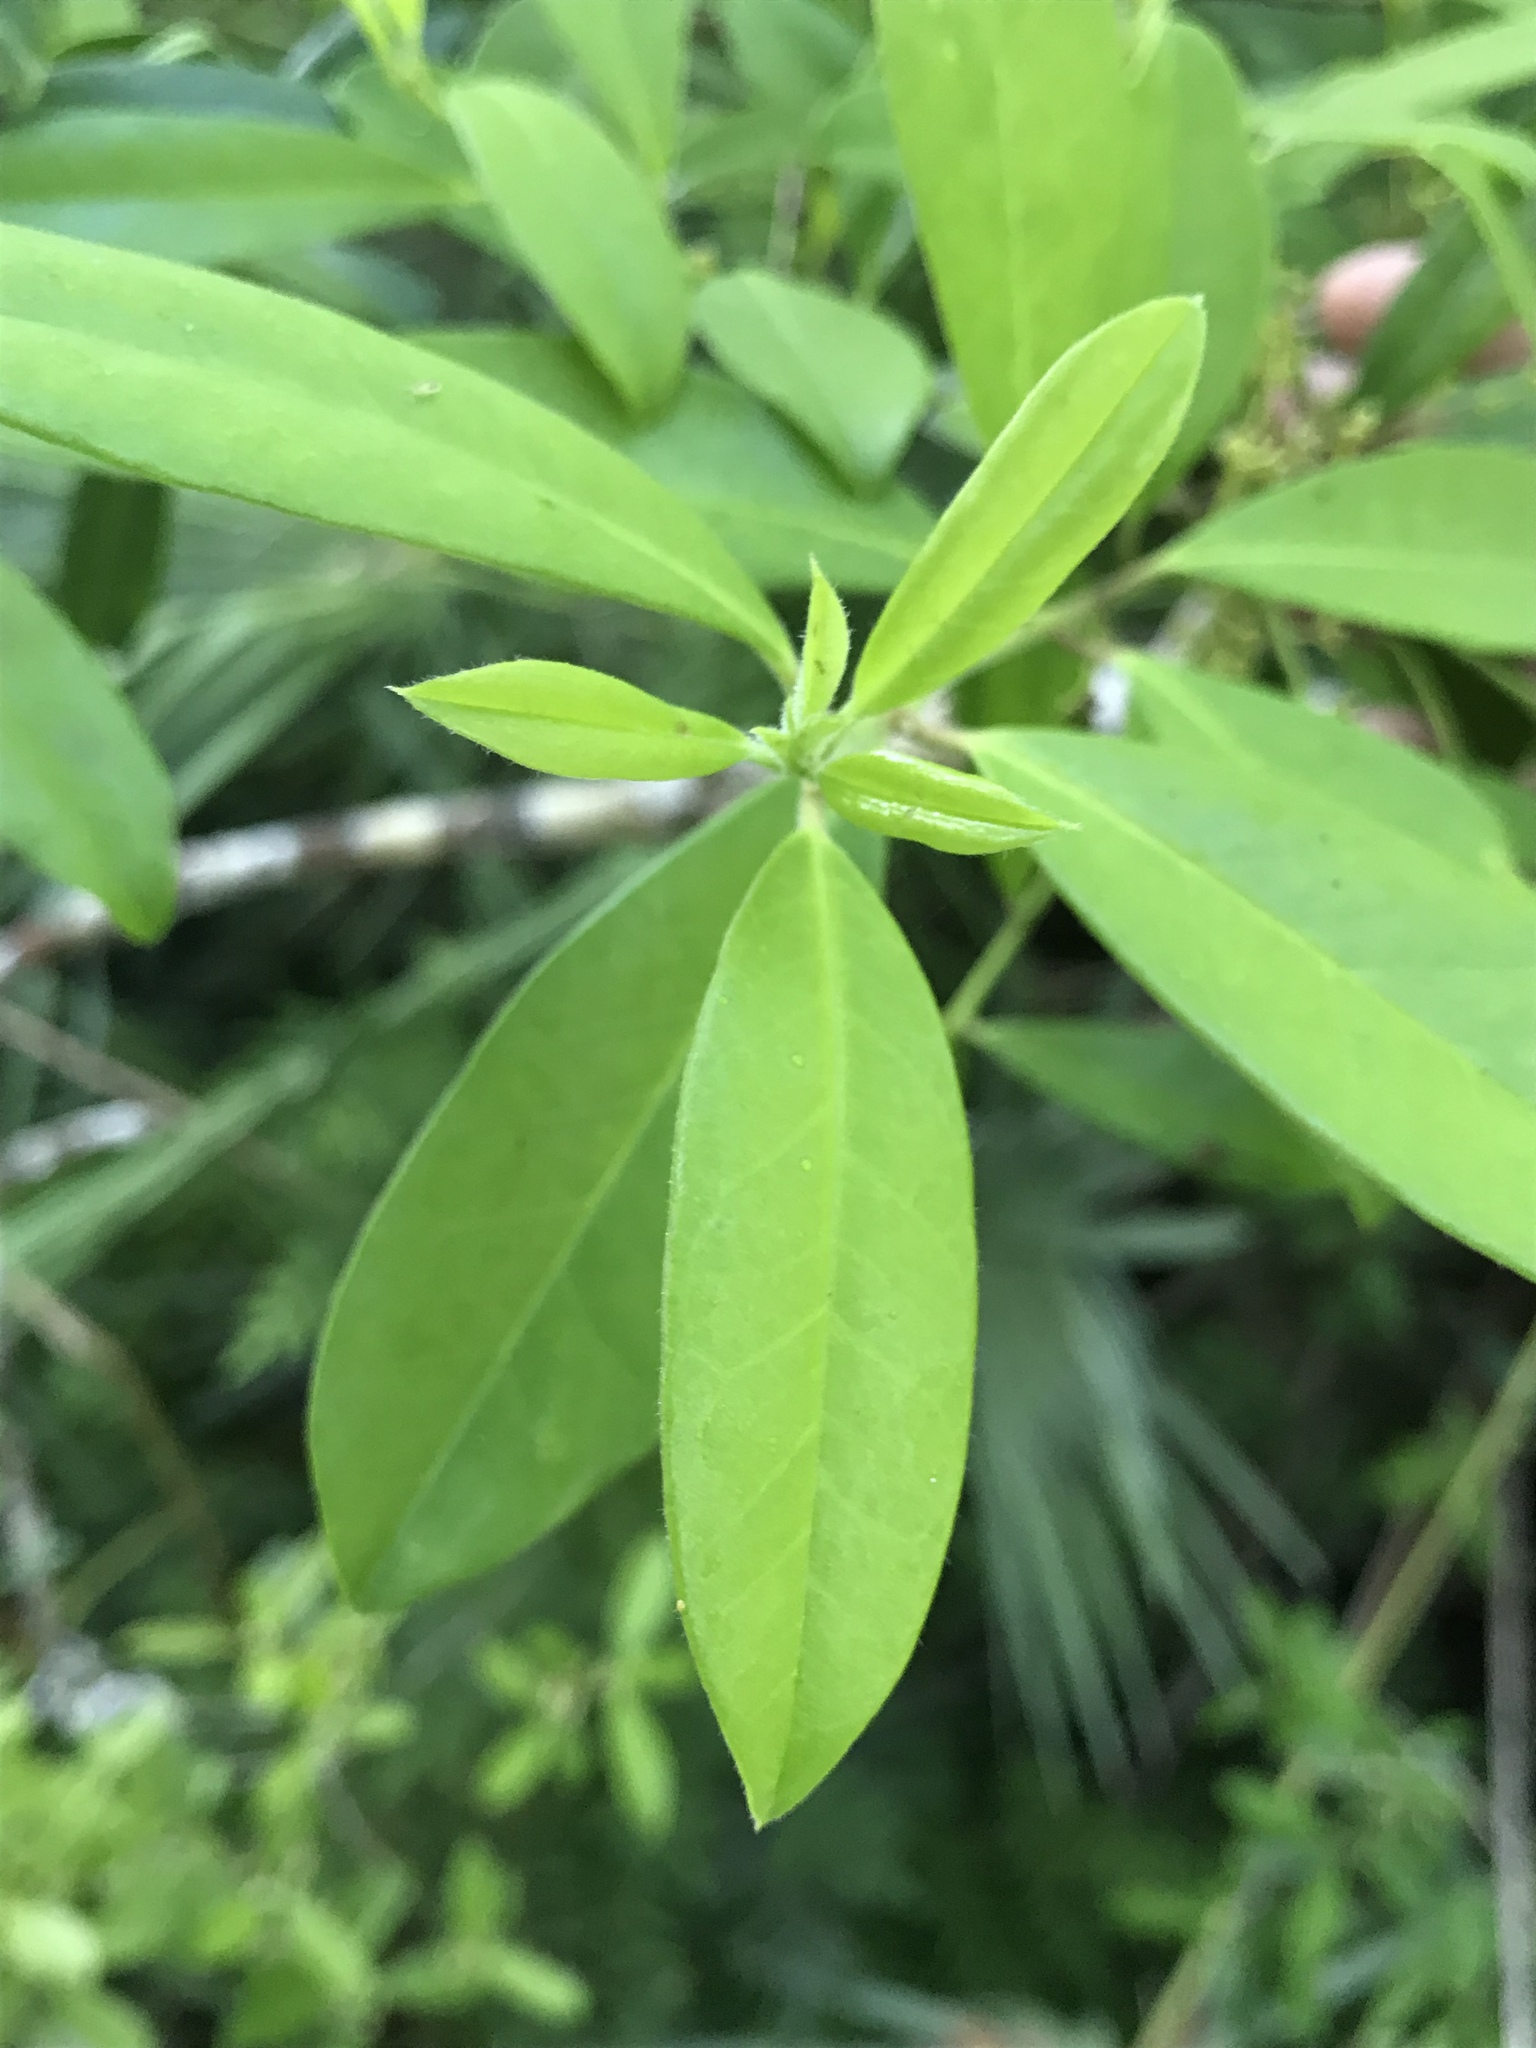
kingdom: Plantae
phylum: Tracheophyta
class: Magnoliopsida
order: Aquifoliales
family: Aquifoliaceae
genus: Ilex
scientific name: Ilex cassine
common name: Dahoon
